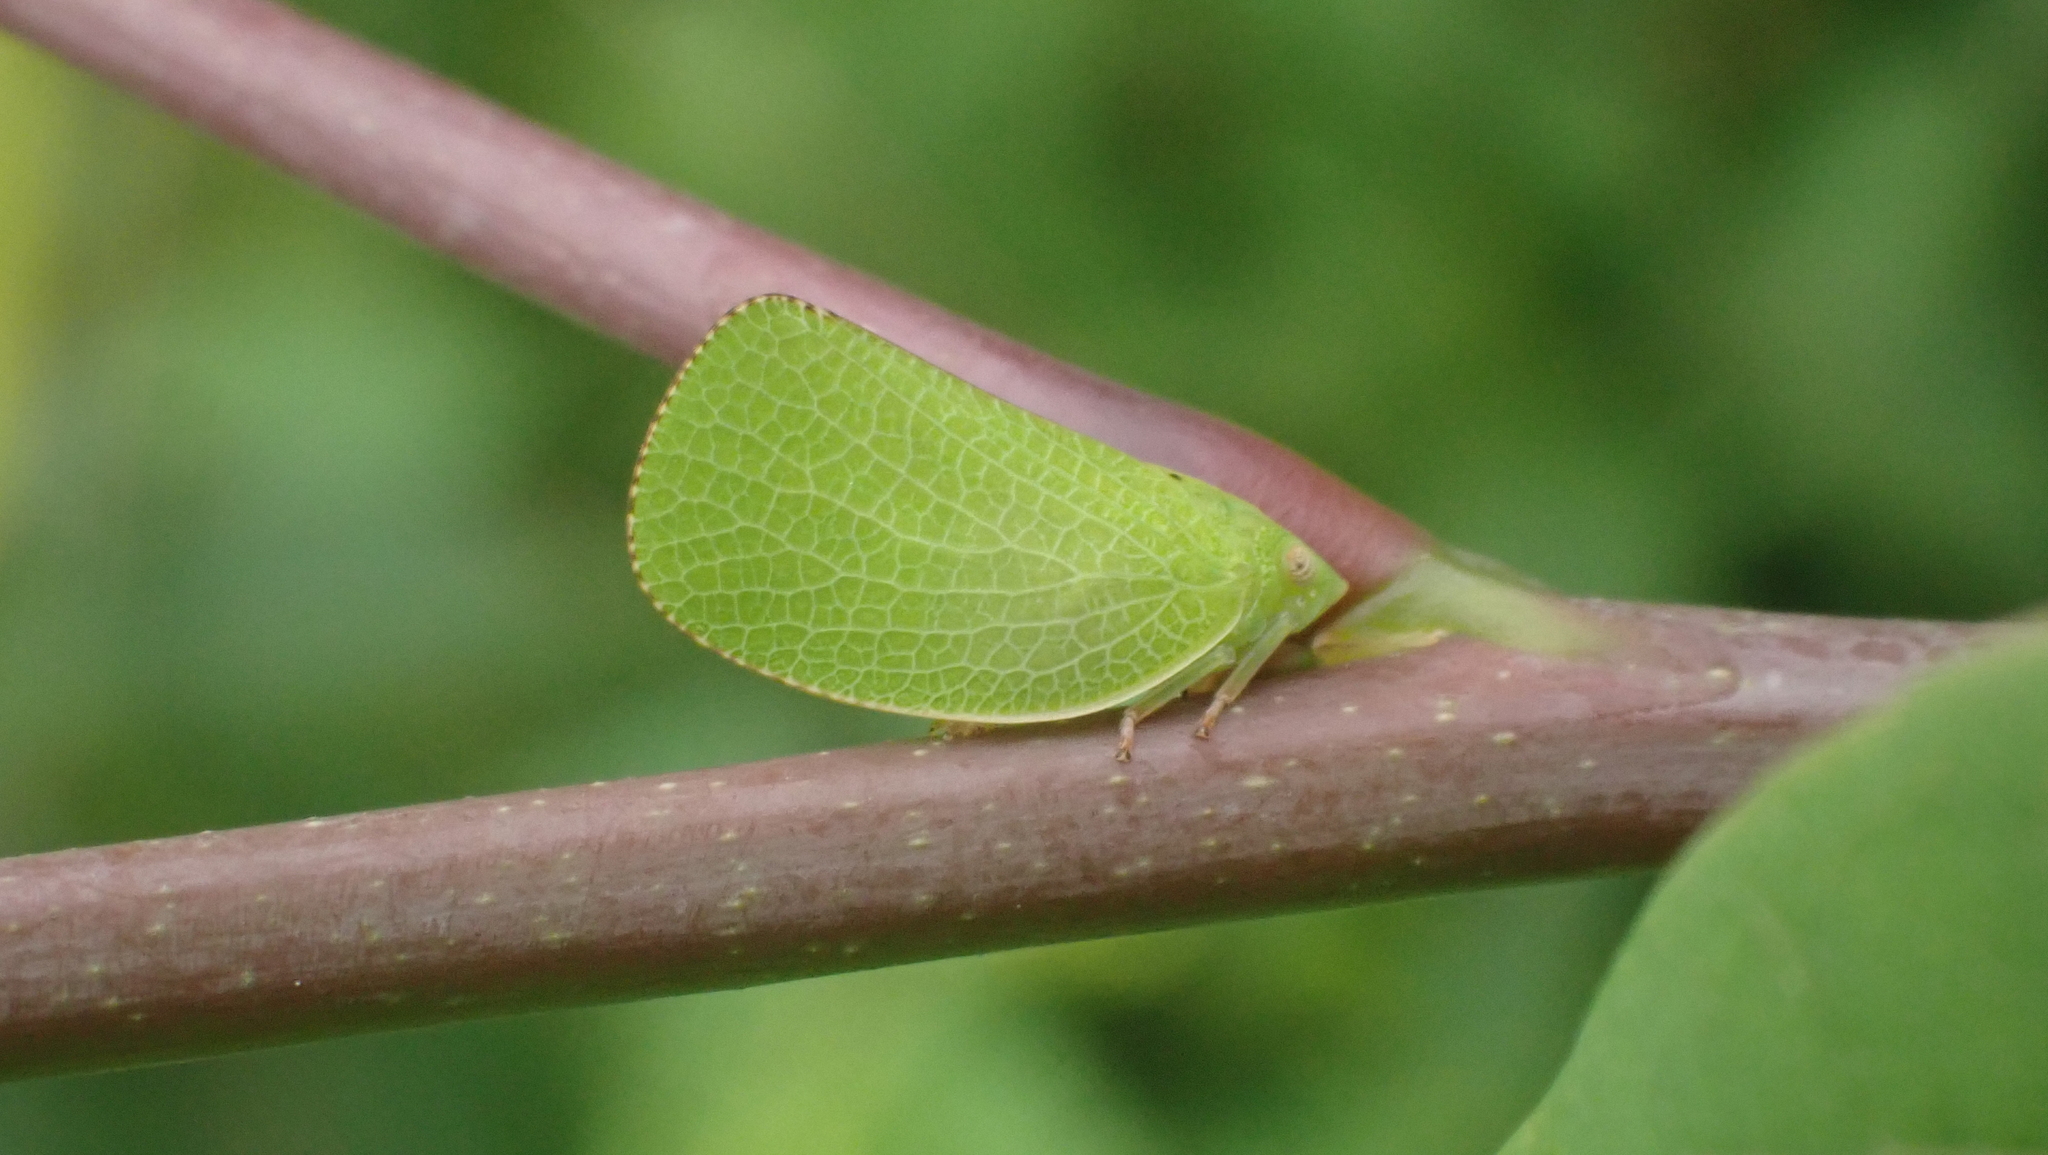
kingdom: Animalia
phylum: Arthropoda
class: Insecta
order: Hemiptera
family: Acanaloniidae
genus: Acanalonia
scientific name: Acanalonia conica
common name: Green cone-headed planthopper
